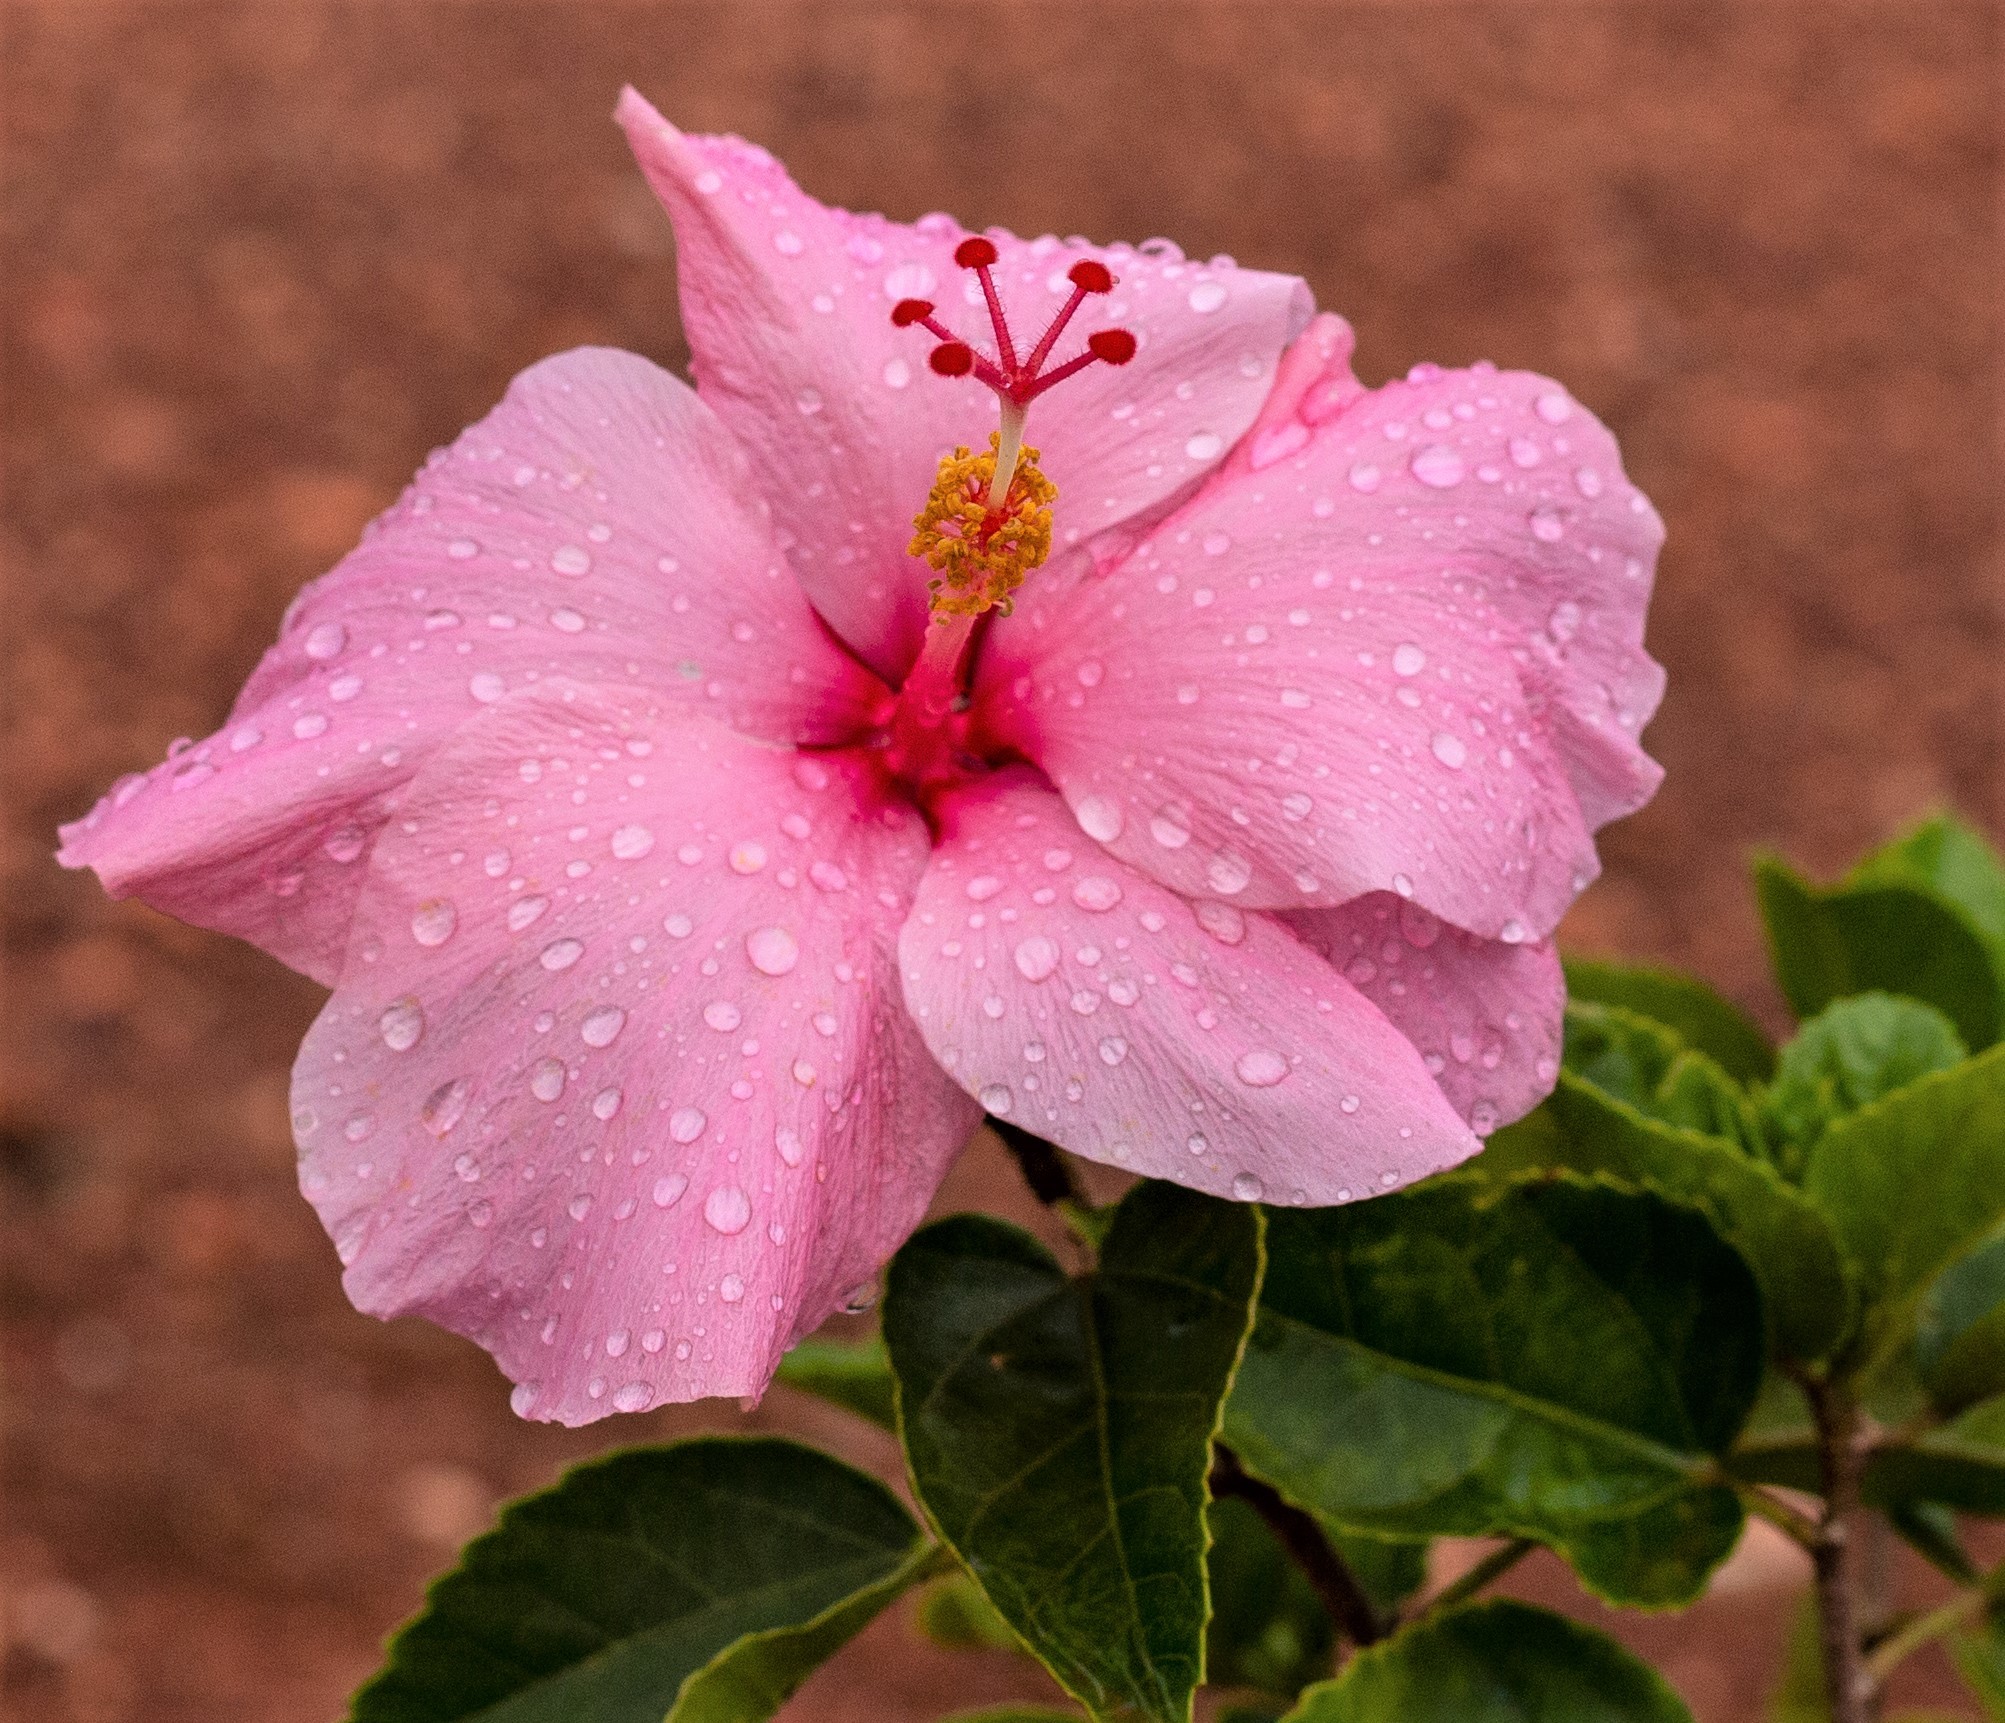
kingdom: Plantae
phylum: Tracheophyta
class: Magnoliopsida
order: Malvales
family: Malvaceae
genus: Hibiscus
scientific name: Hibiscus rosa-sinensis
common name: Hibiscus
